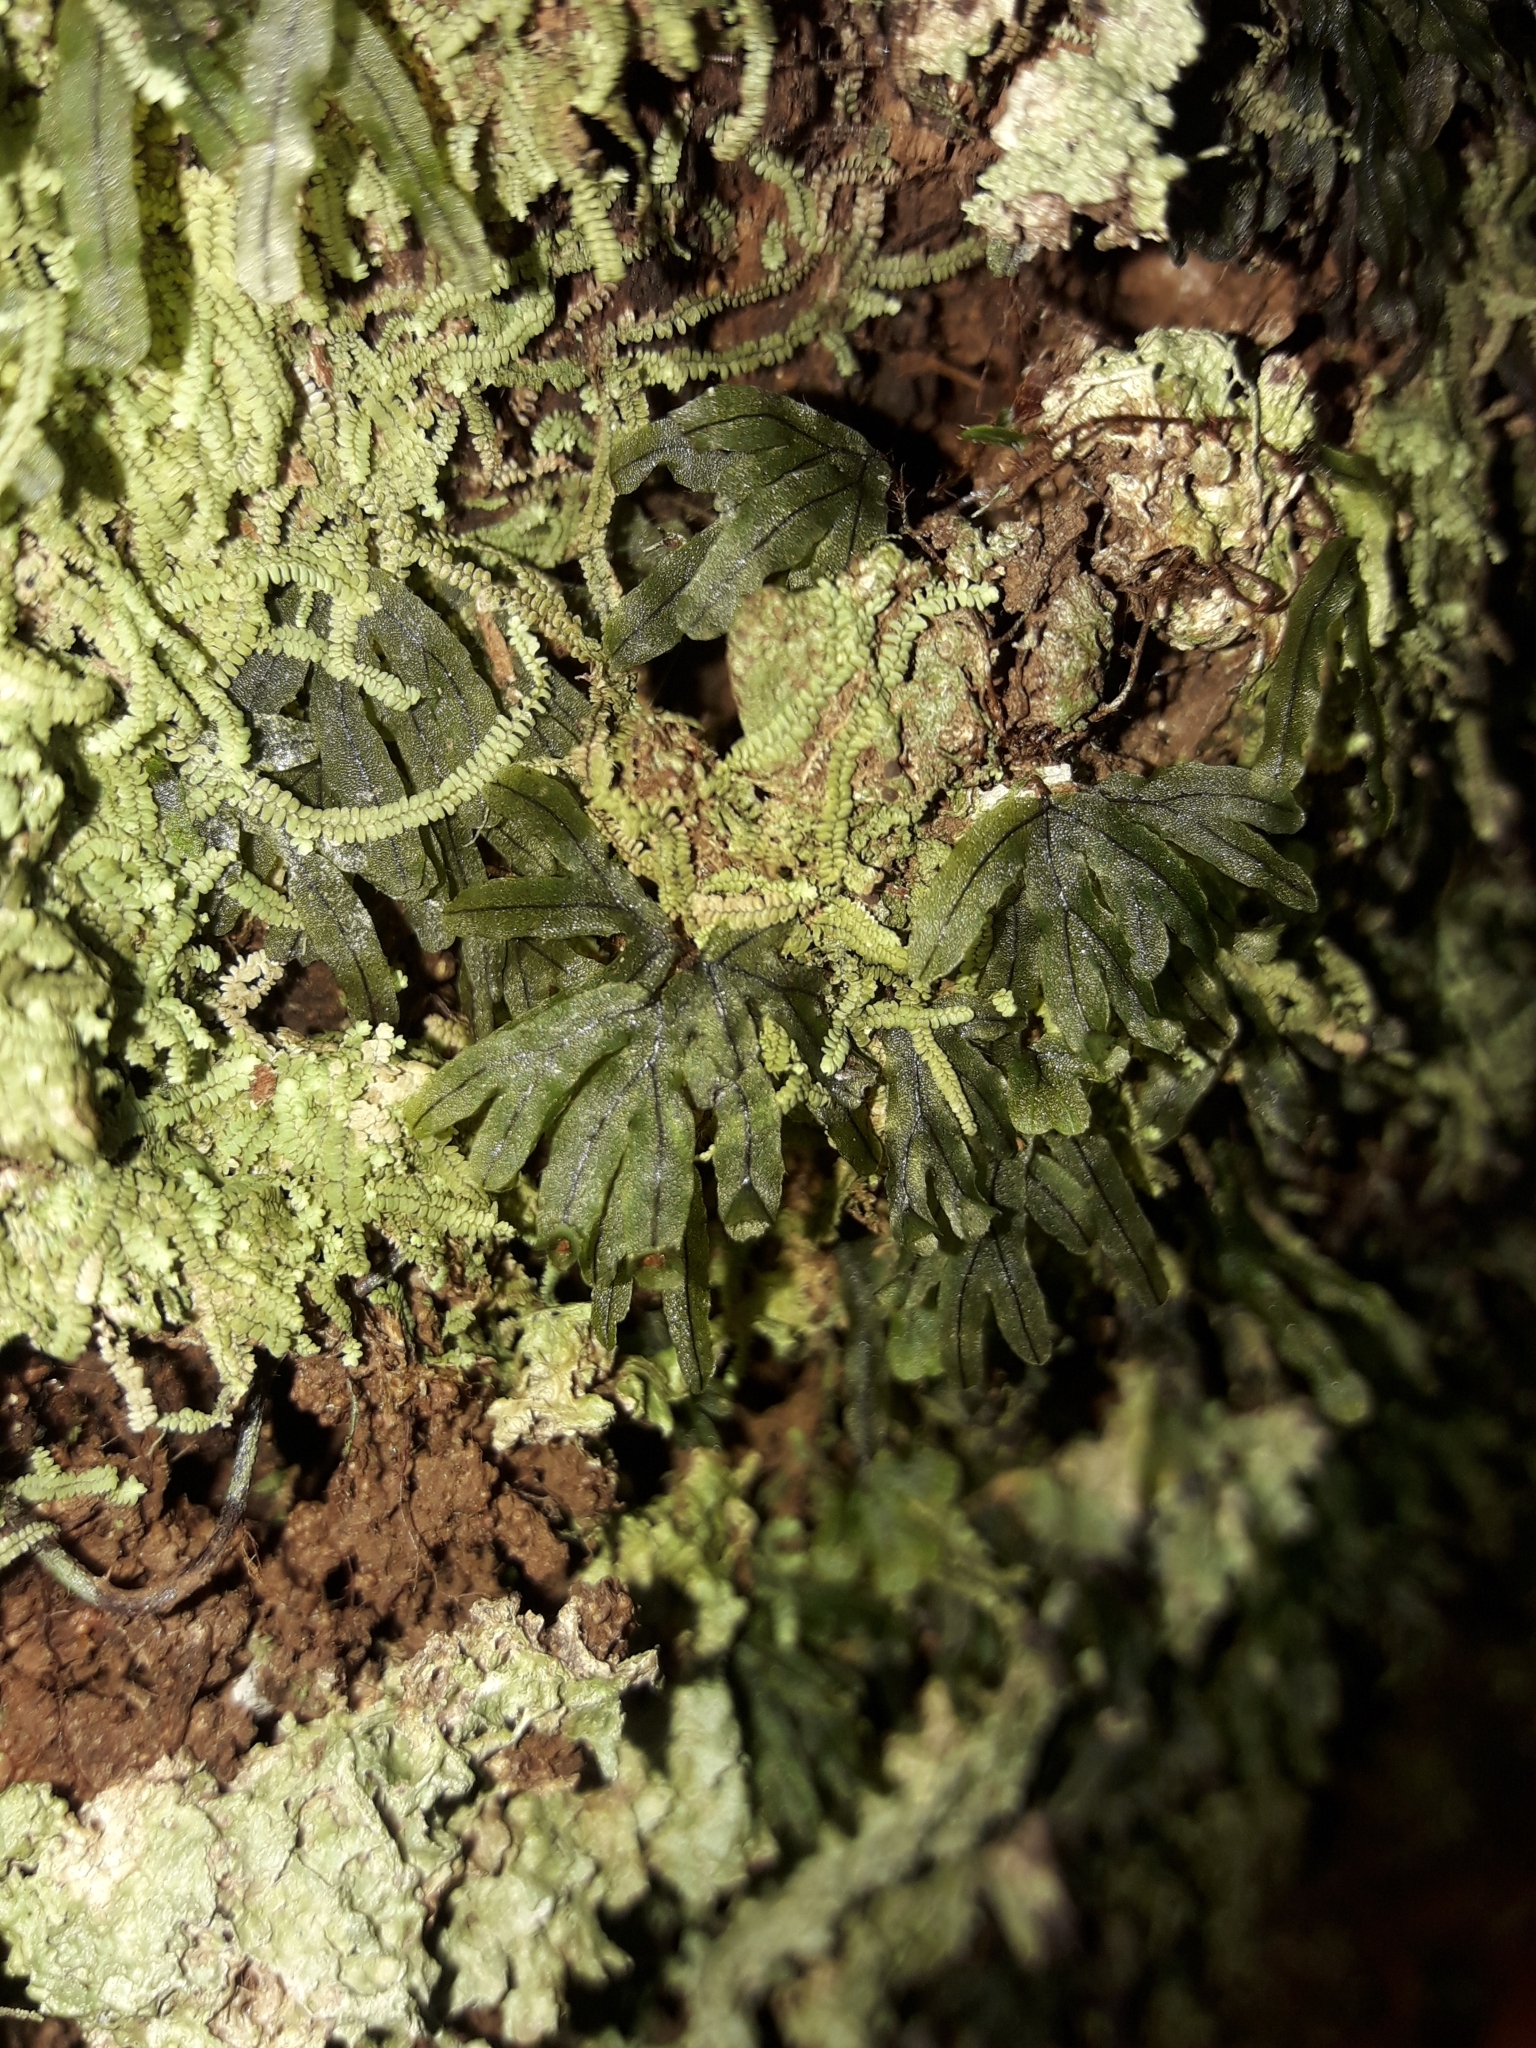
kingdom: Plantae
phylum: Tracheophyta
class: Polypodiopsida
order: Hymenophyllales
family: Hymenophyllaceae
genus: Hymenophyllum
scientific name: Hymenophyllum neocaledonicum
